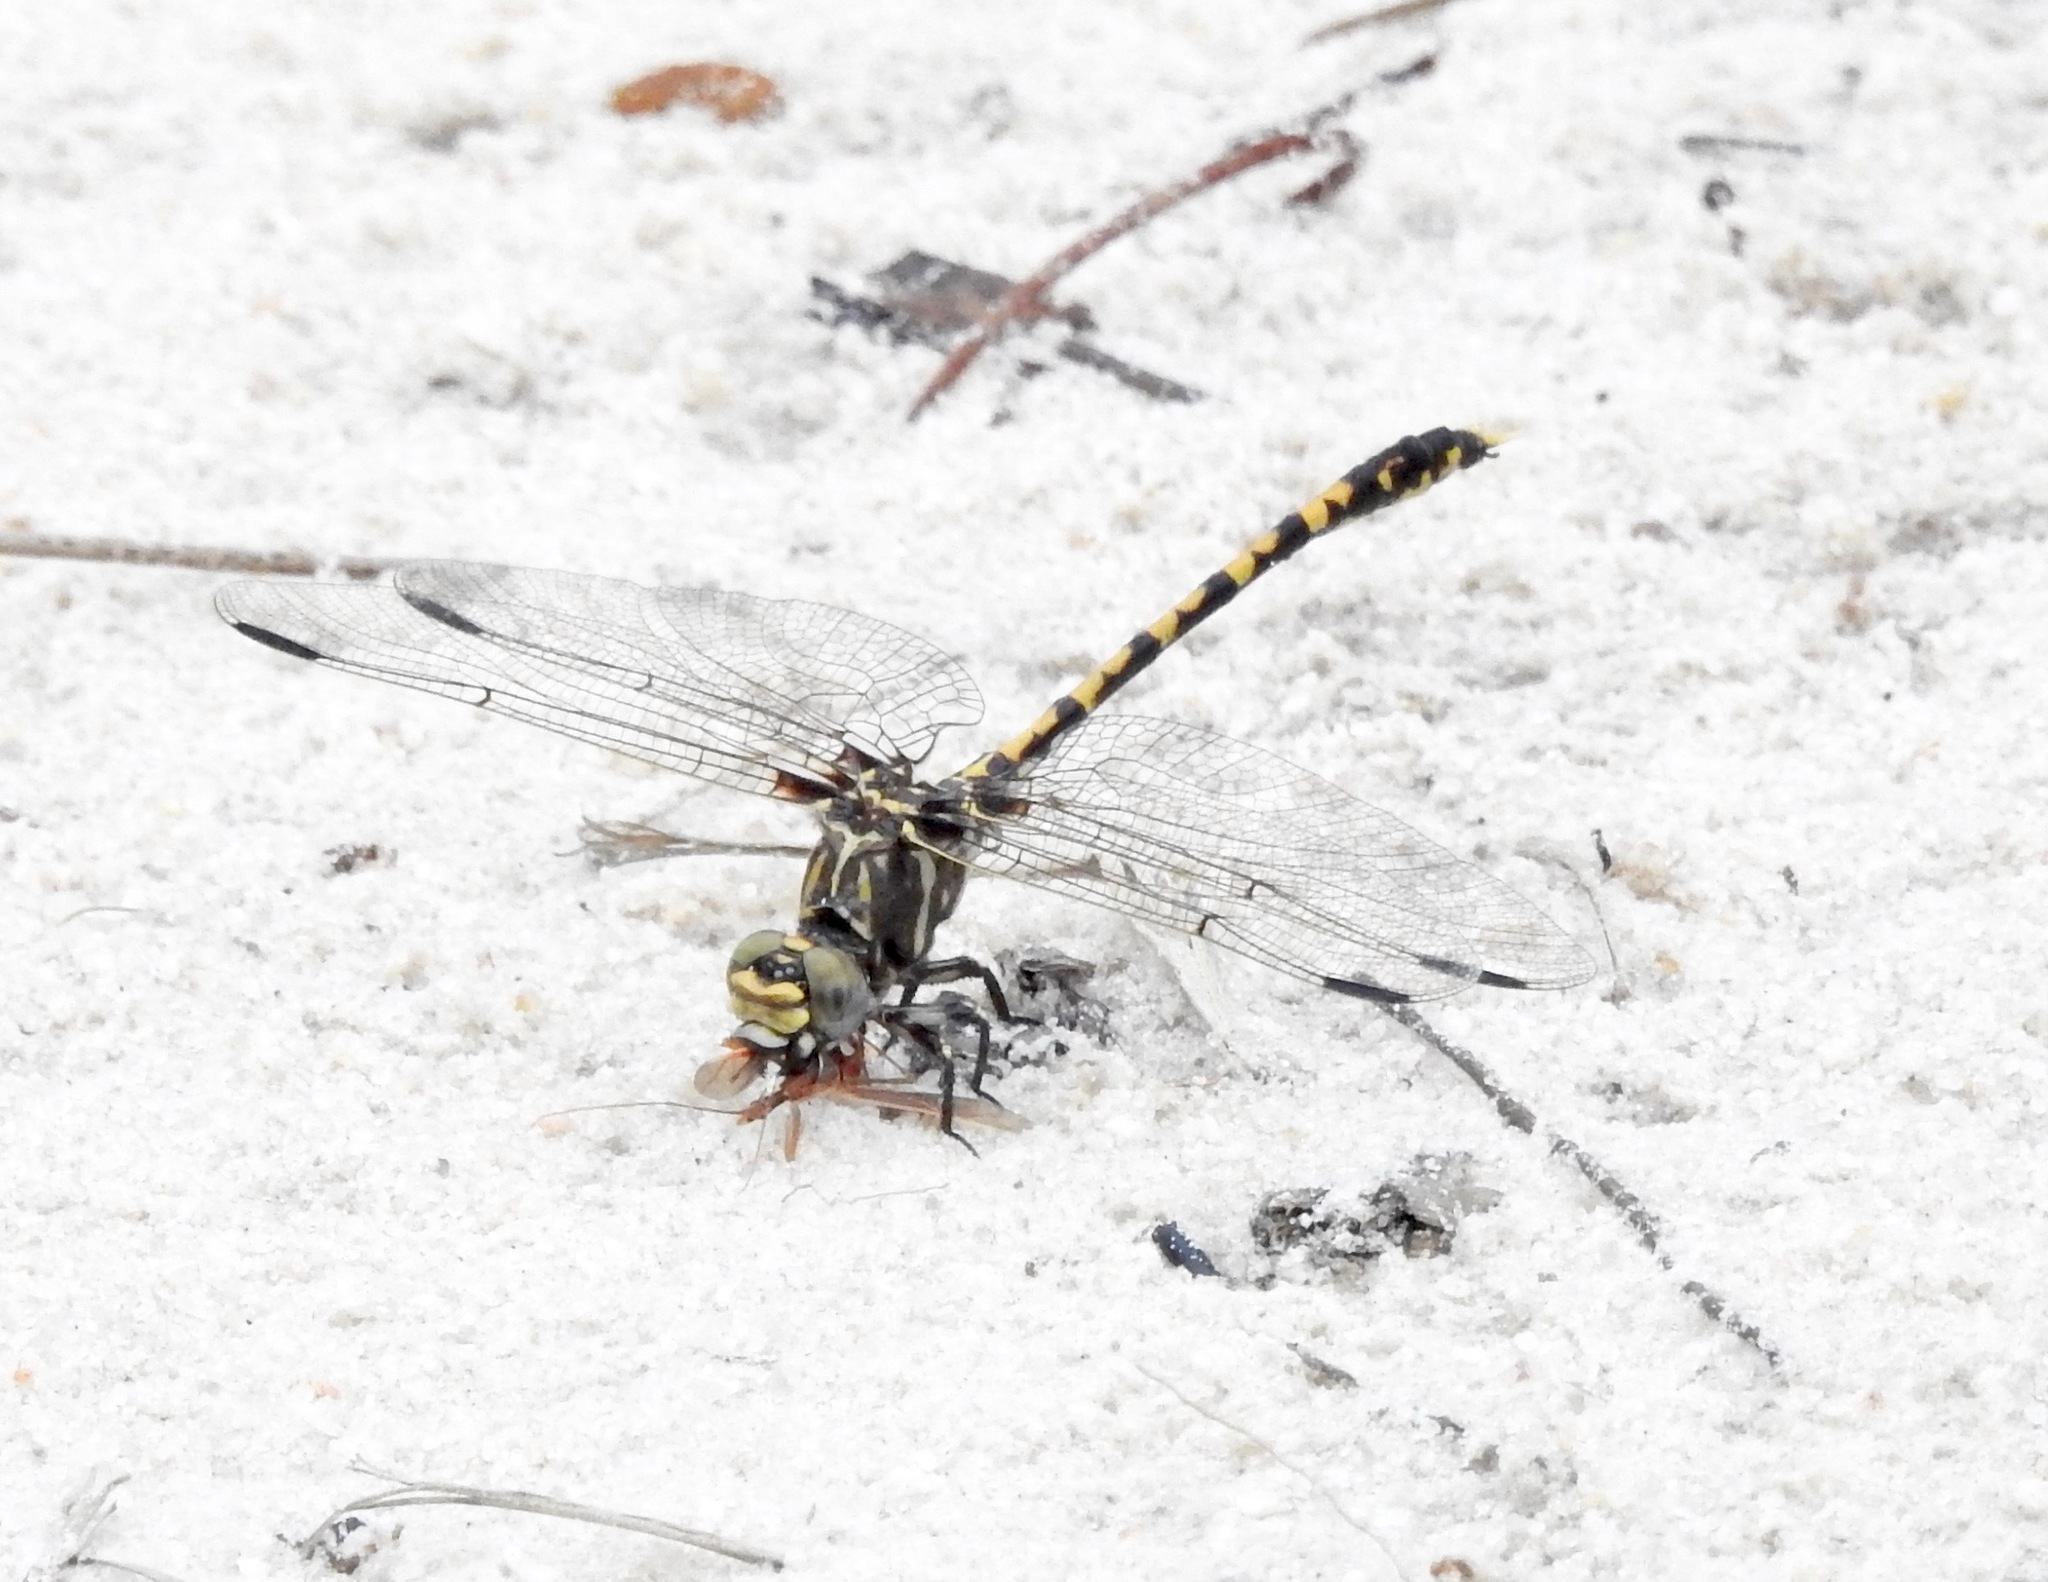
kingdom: Animalia
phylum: Arthropoda
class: Insecta
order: Odonata
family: Gomphidae
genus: Progomphus
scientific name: Progomphus bellei
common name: Belle's sanddragon
